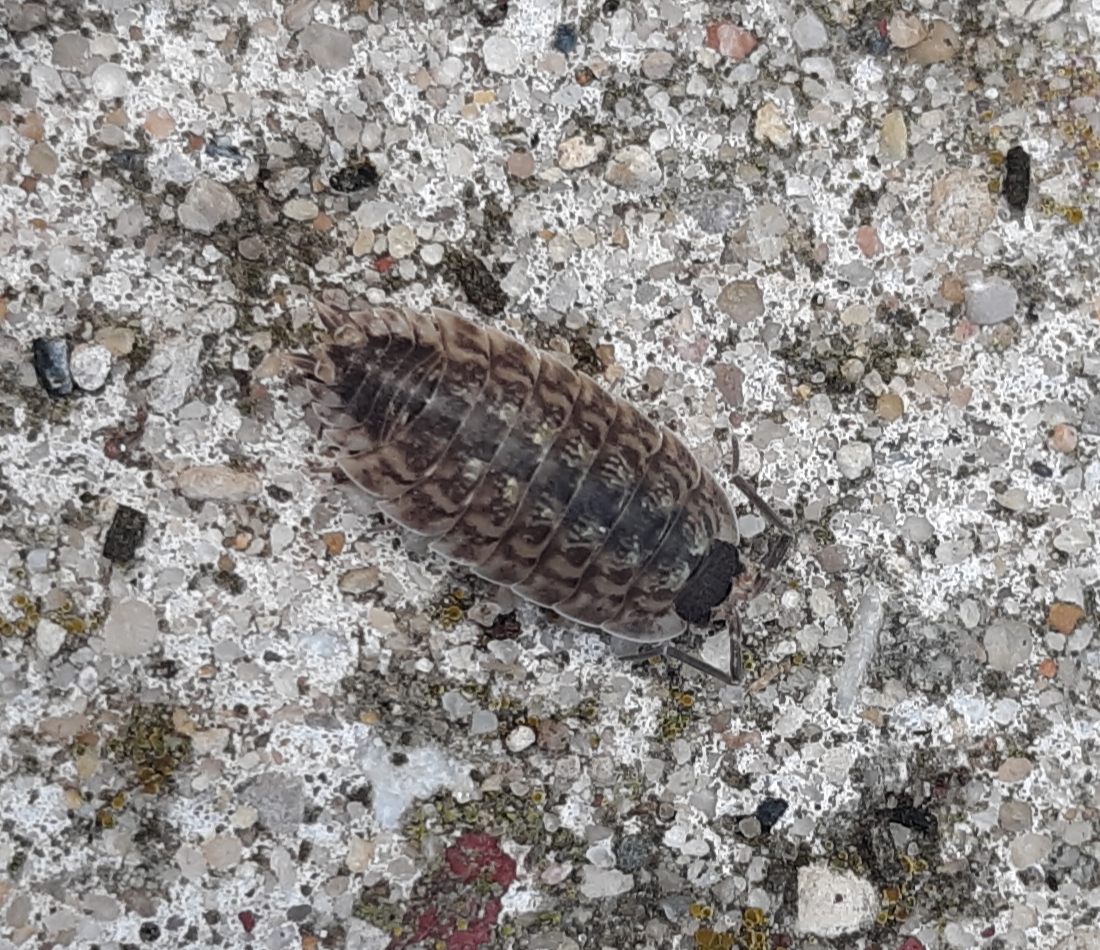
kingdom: Animalia
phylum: Arthropoda
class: Malacostraca
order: Isopoda
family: Porcellionidae
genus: Porcellio
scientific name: Porcellio spinicornis
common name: Painted woodlouse
